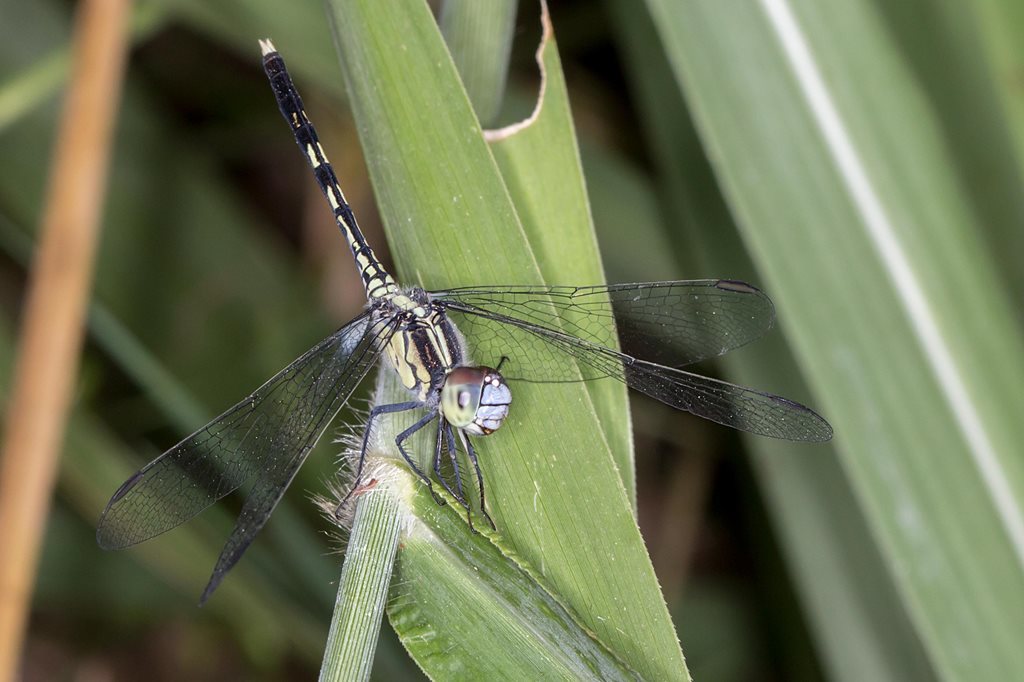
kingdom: Animalia
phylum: Arthropoda
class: Insecta
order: Odonata
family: Libellulidae
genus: Diplacodes
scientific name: Diplacodes trivialis
